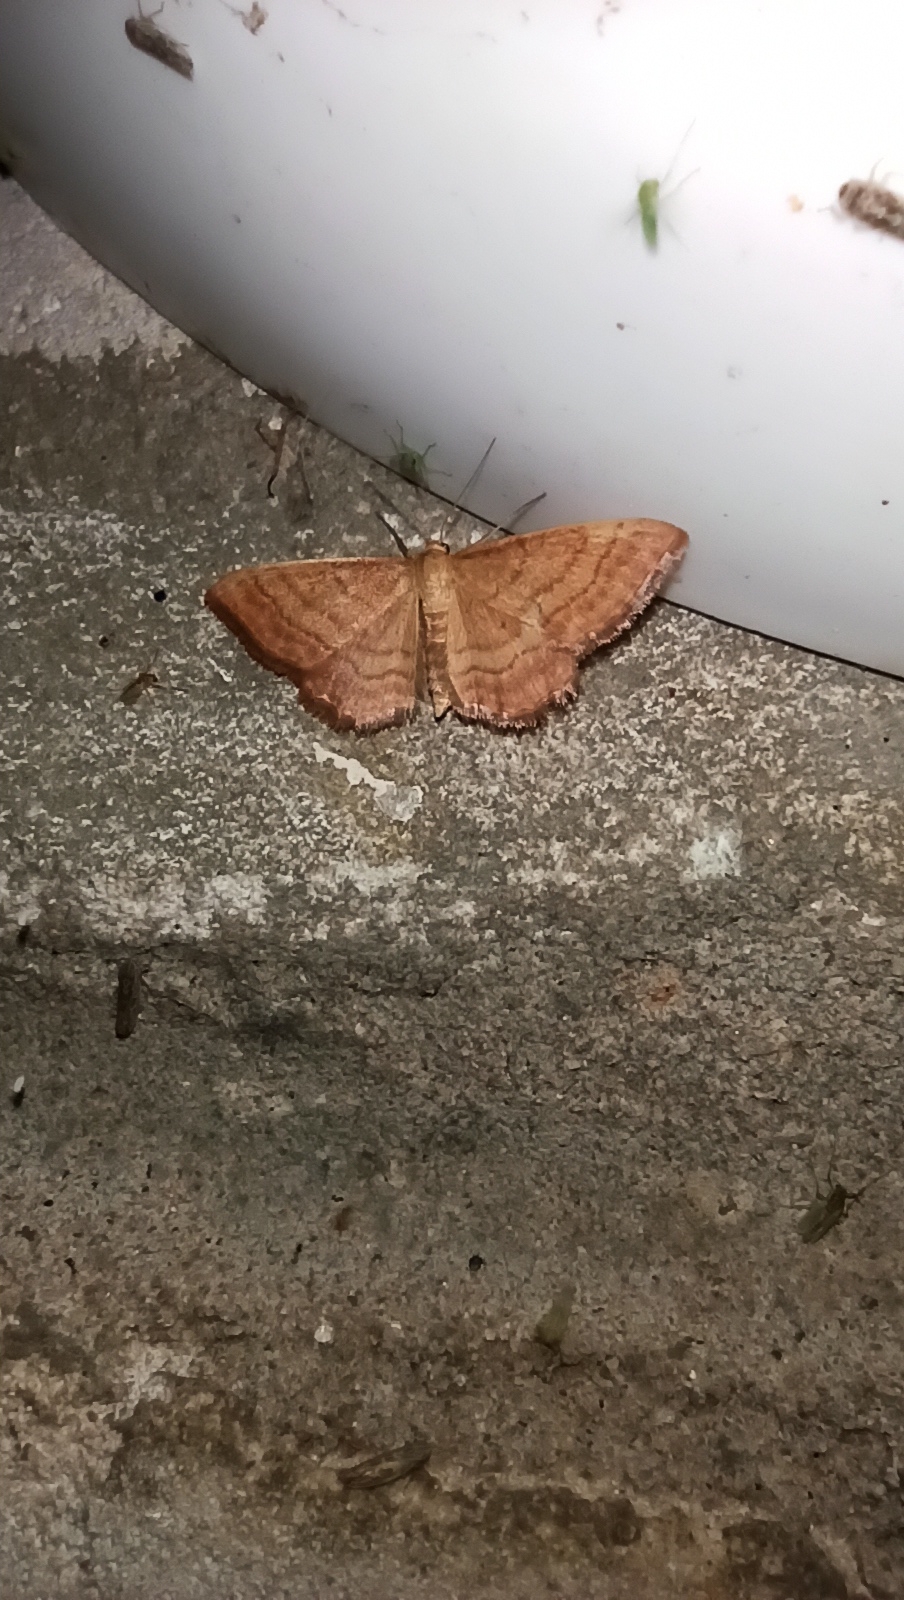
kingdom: Animalia
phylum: Arthropoda
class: Insecta
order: Lepidoptera
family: Geometridae
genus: Idaea
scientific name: Idaea ochrata
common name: Bright wave
